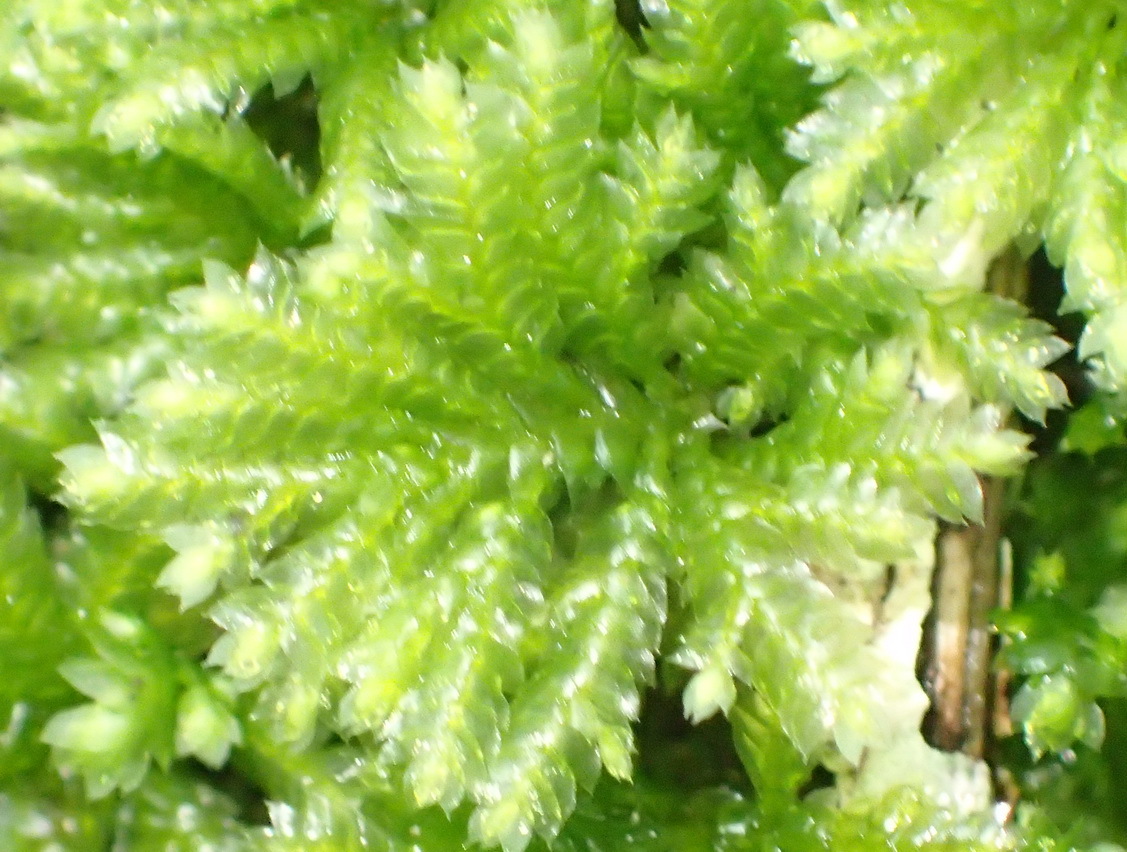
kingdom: Plantae
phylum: Bryophyta
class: Bryopsida
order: Hypopterygiales
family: Hypopterygiaceae
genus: Hypopterygium
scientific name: Hypopterygium tamarisci
